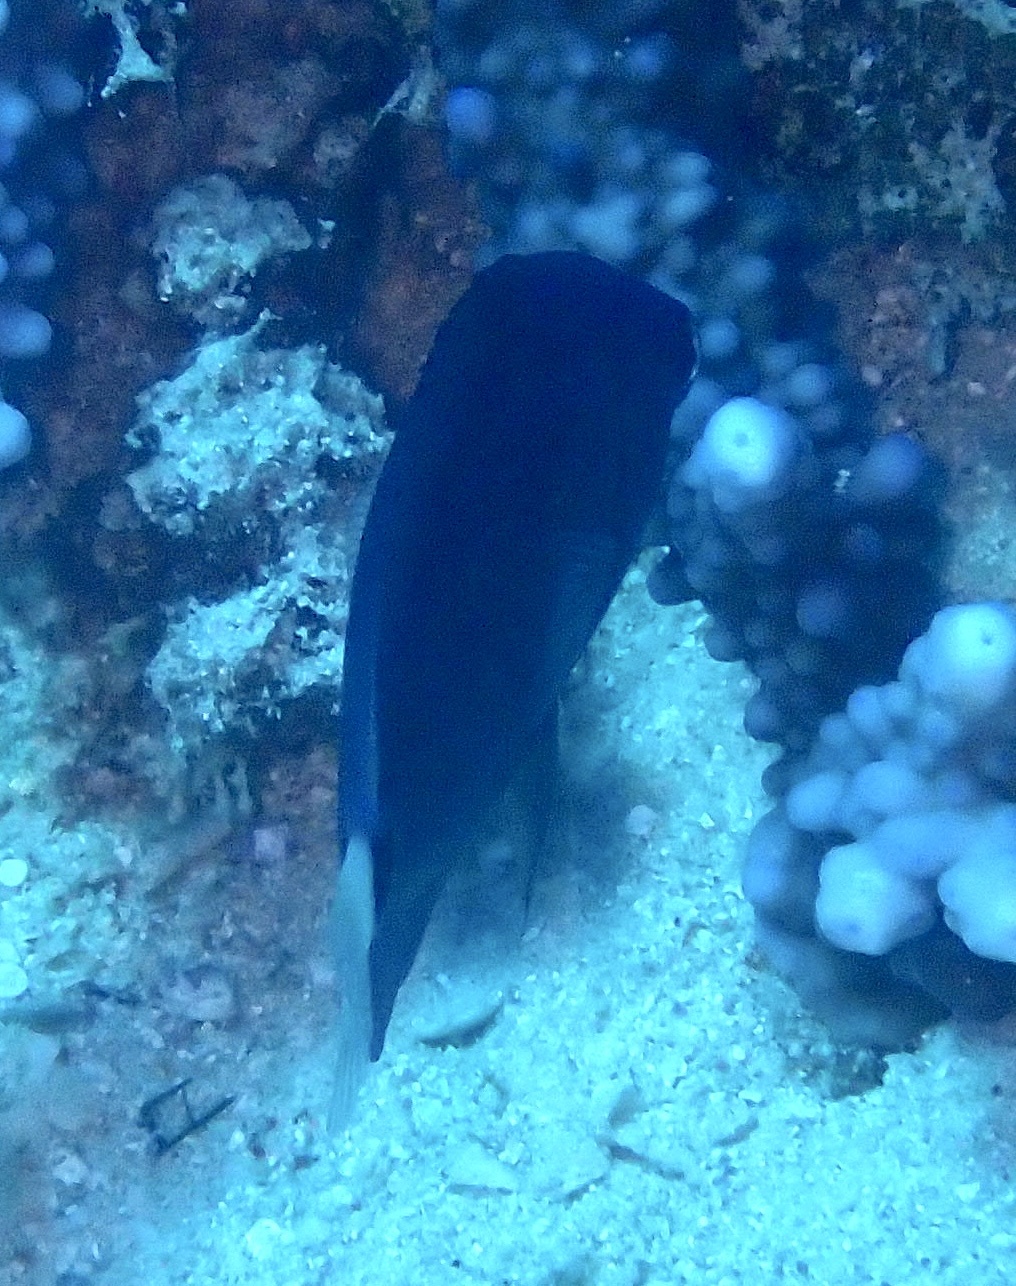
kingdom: Animalia
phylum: Chordata
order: Perciformes
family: Pomacentridae
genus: Pomacentrus
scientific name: Pomacentrus albicaudatus
